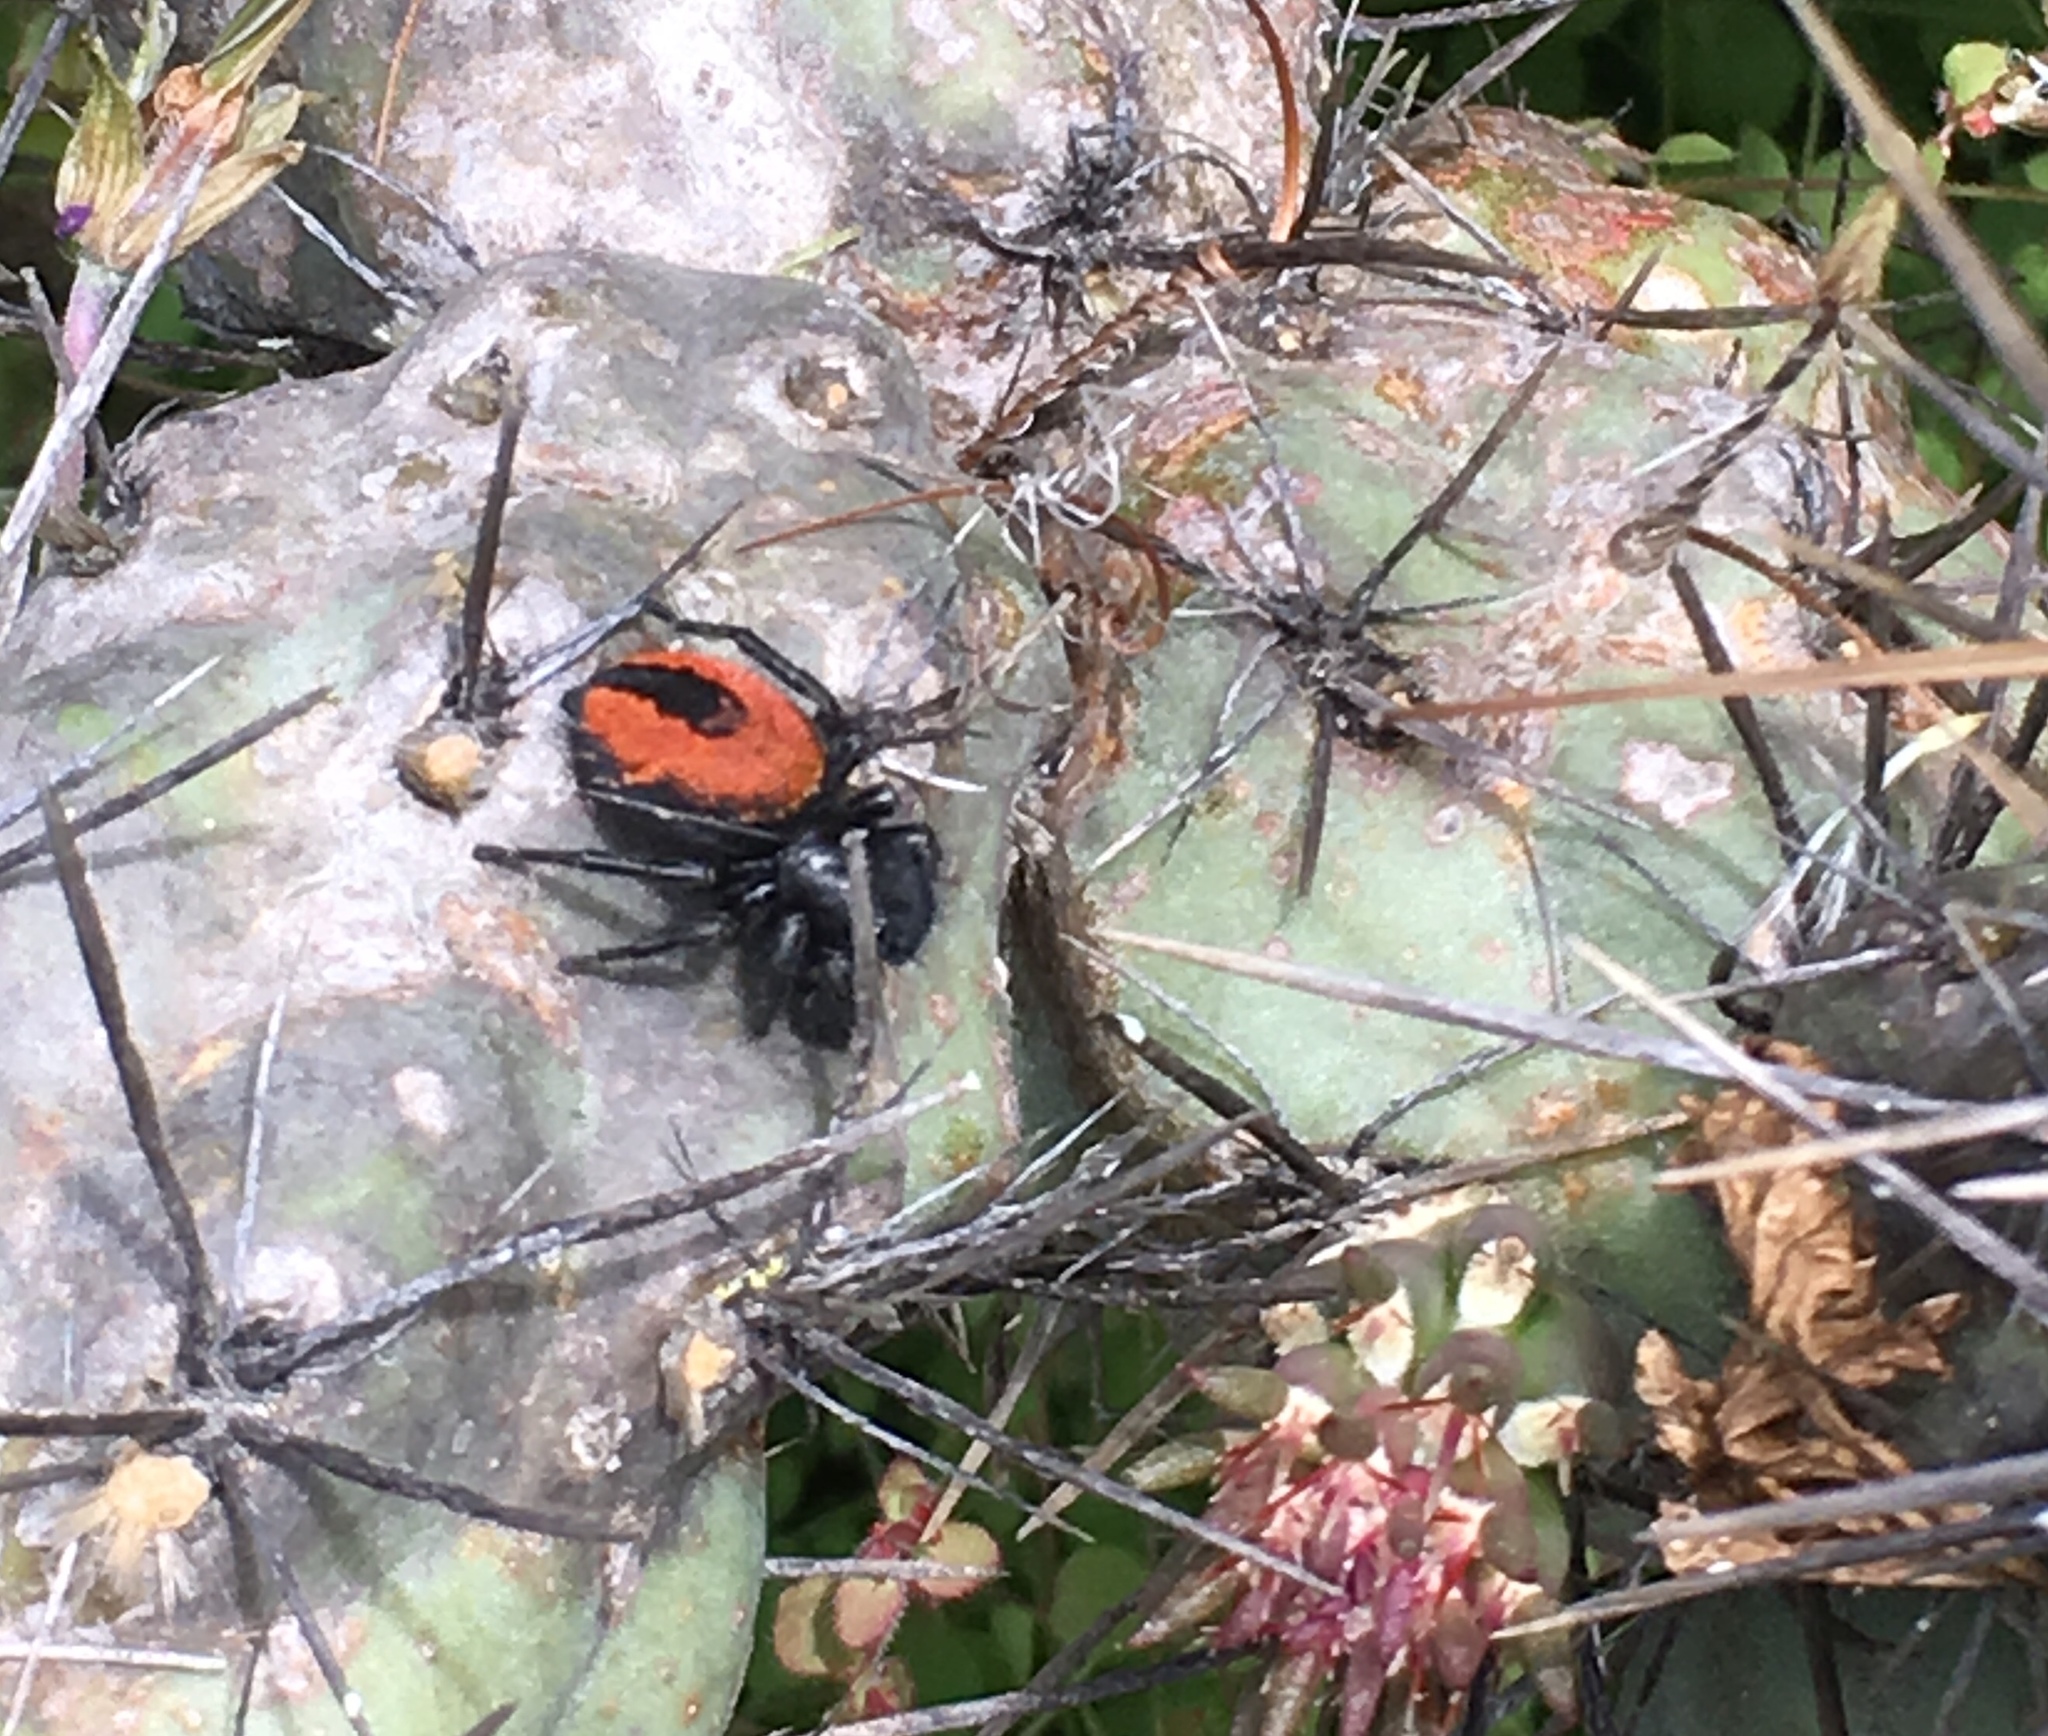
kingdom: Animalia
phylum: Arthropoda
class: Arachnida
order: Araneae
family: Salticidae
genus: Phidippus
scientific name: Phidippus johnsoni
